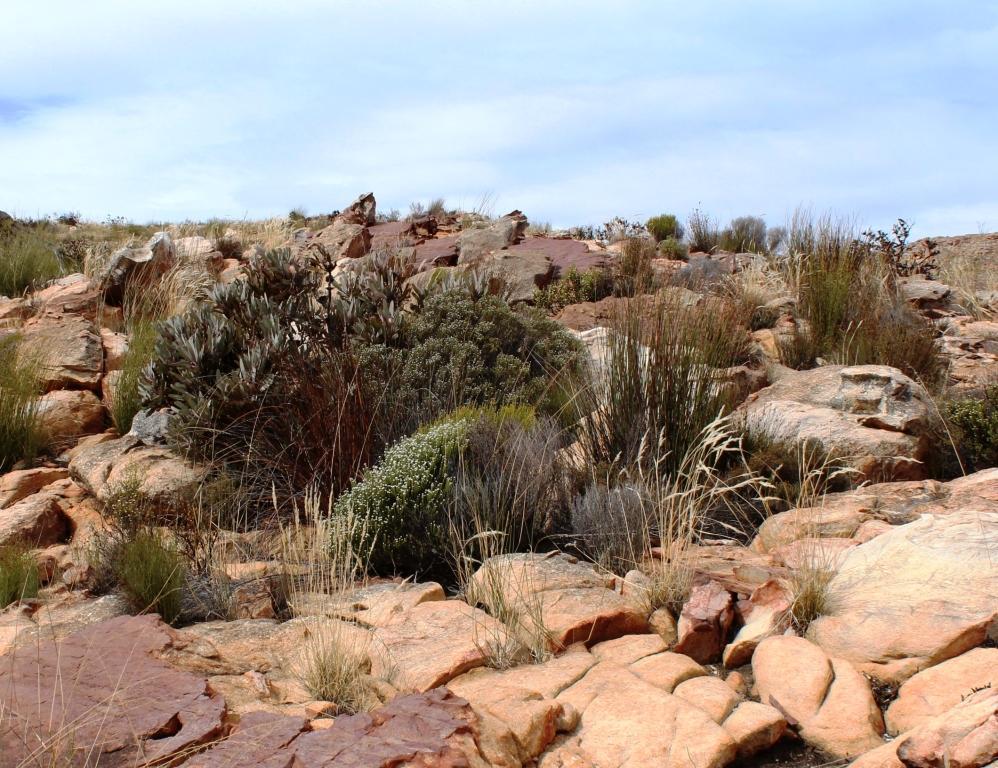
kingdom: Plantae
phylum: Tracheophyta
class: Magnoliopsida
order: Proteales
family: Proteaceae
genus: Protea
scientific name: Protea lorifolia
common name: Strap-leaved protea
